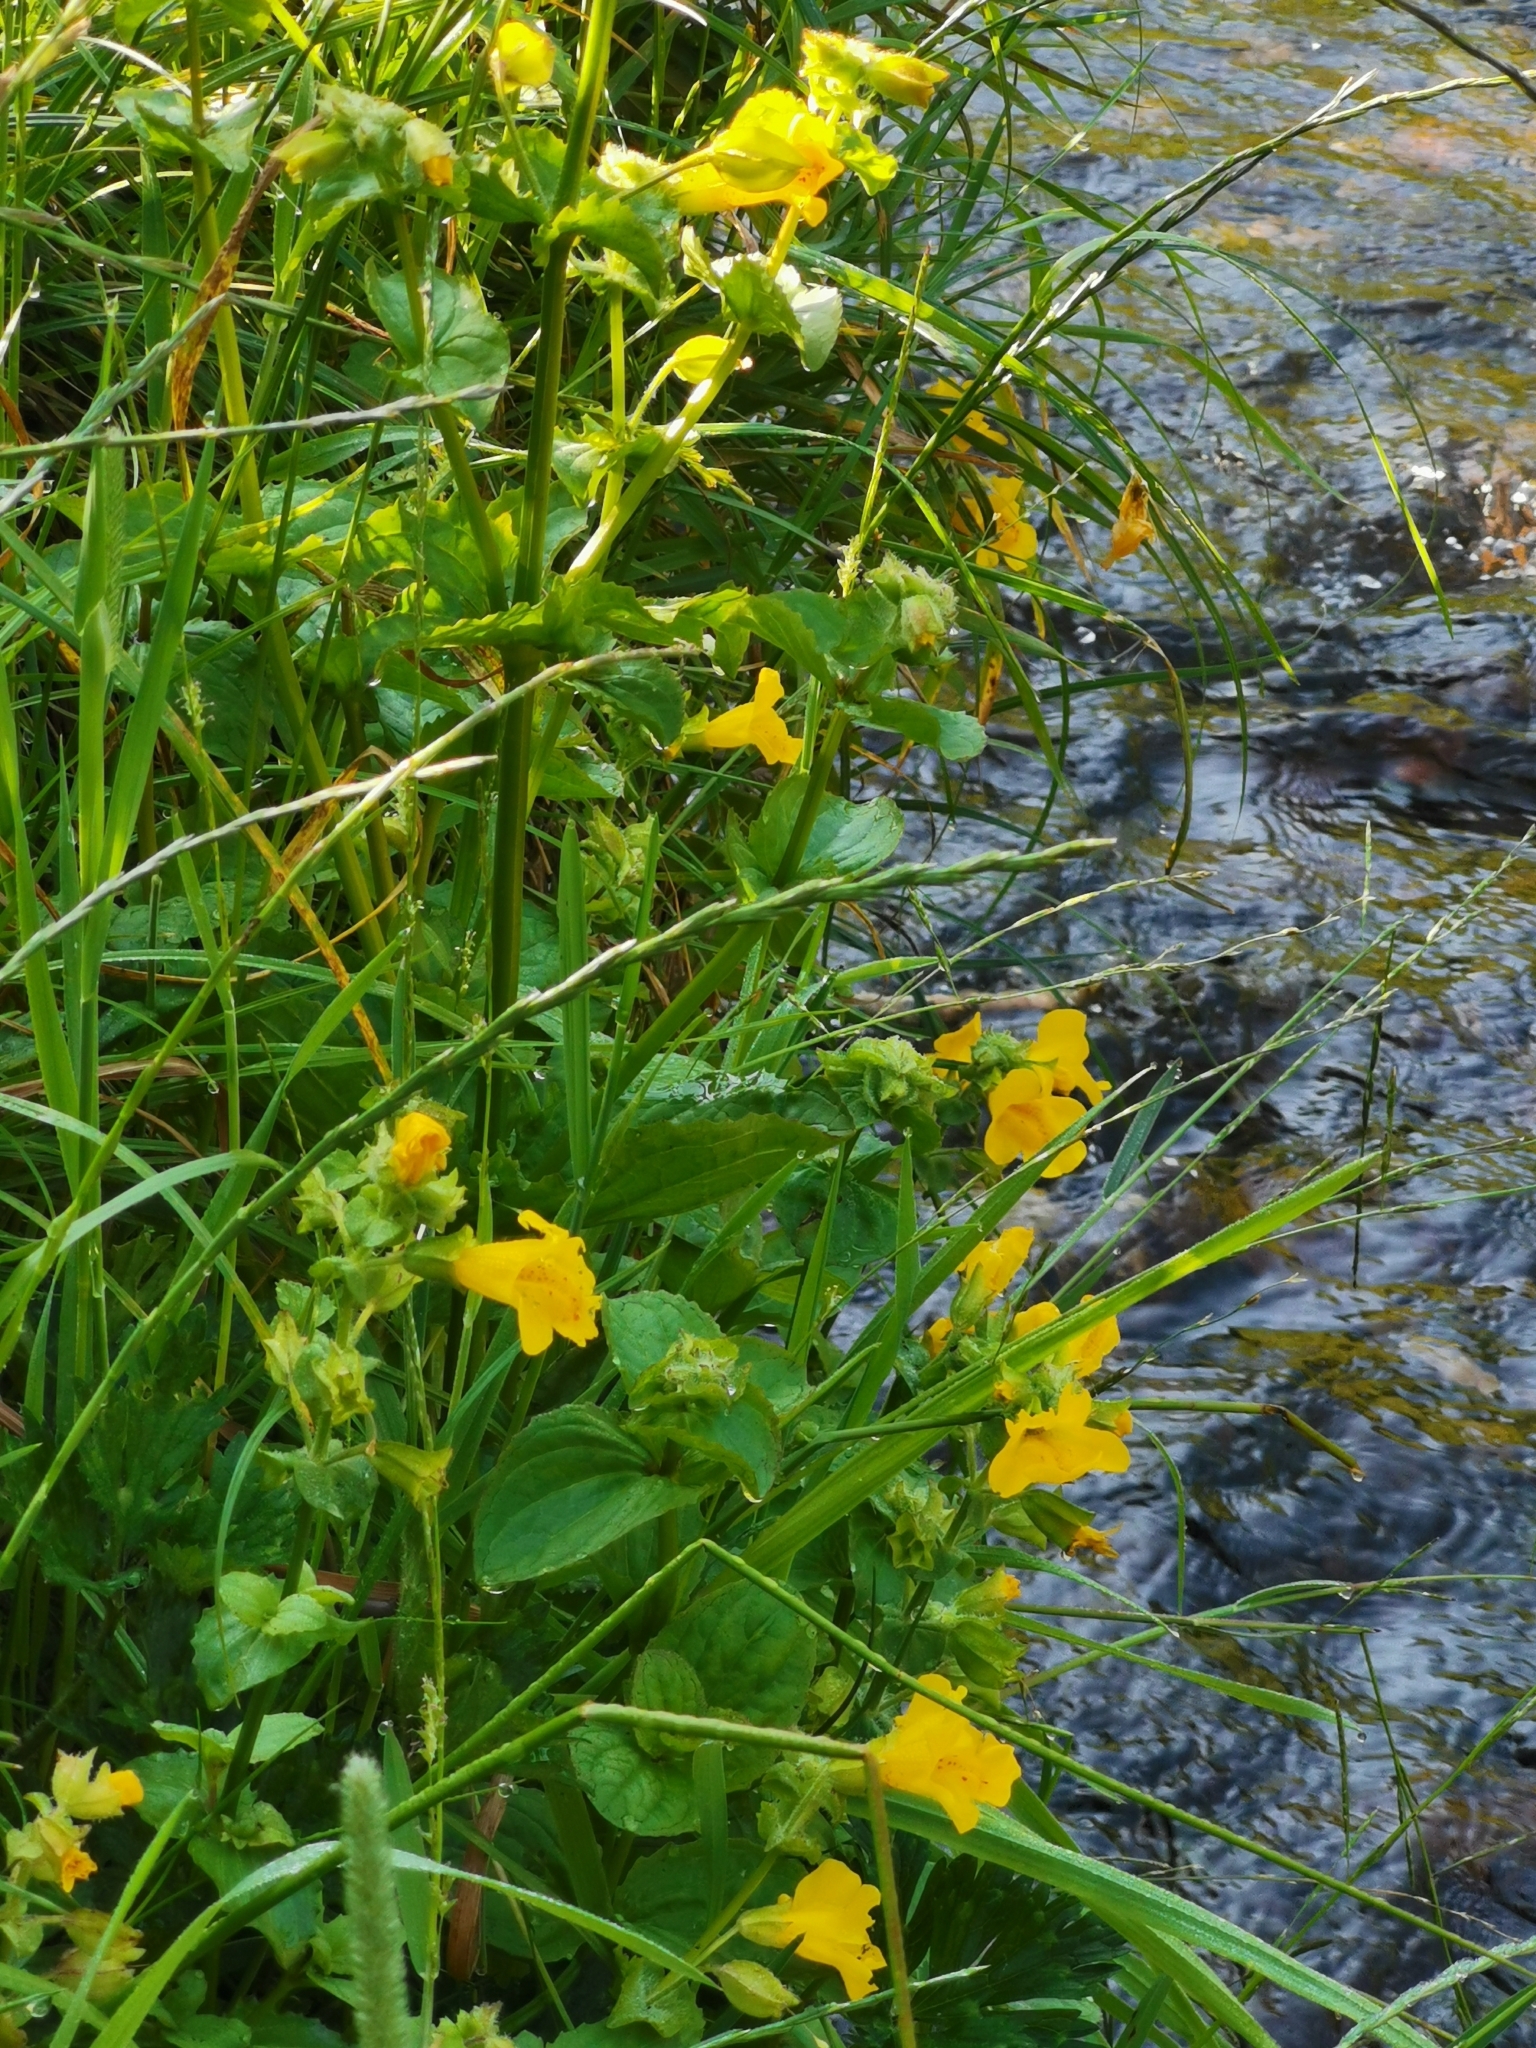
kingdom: Plantae
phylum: Tracheophyta
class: Magnoliopsida
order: Lamiales
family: Phrymaceae
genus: Erythranthe
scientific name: Erythranthe guttata
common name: Monkeyflower
